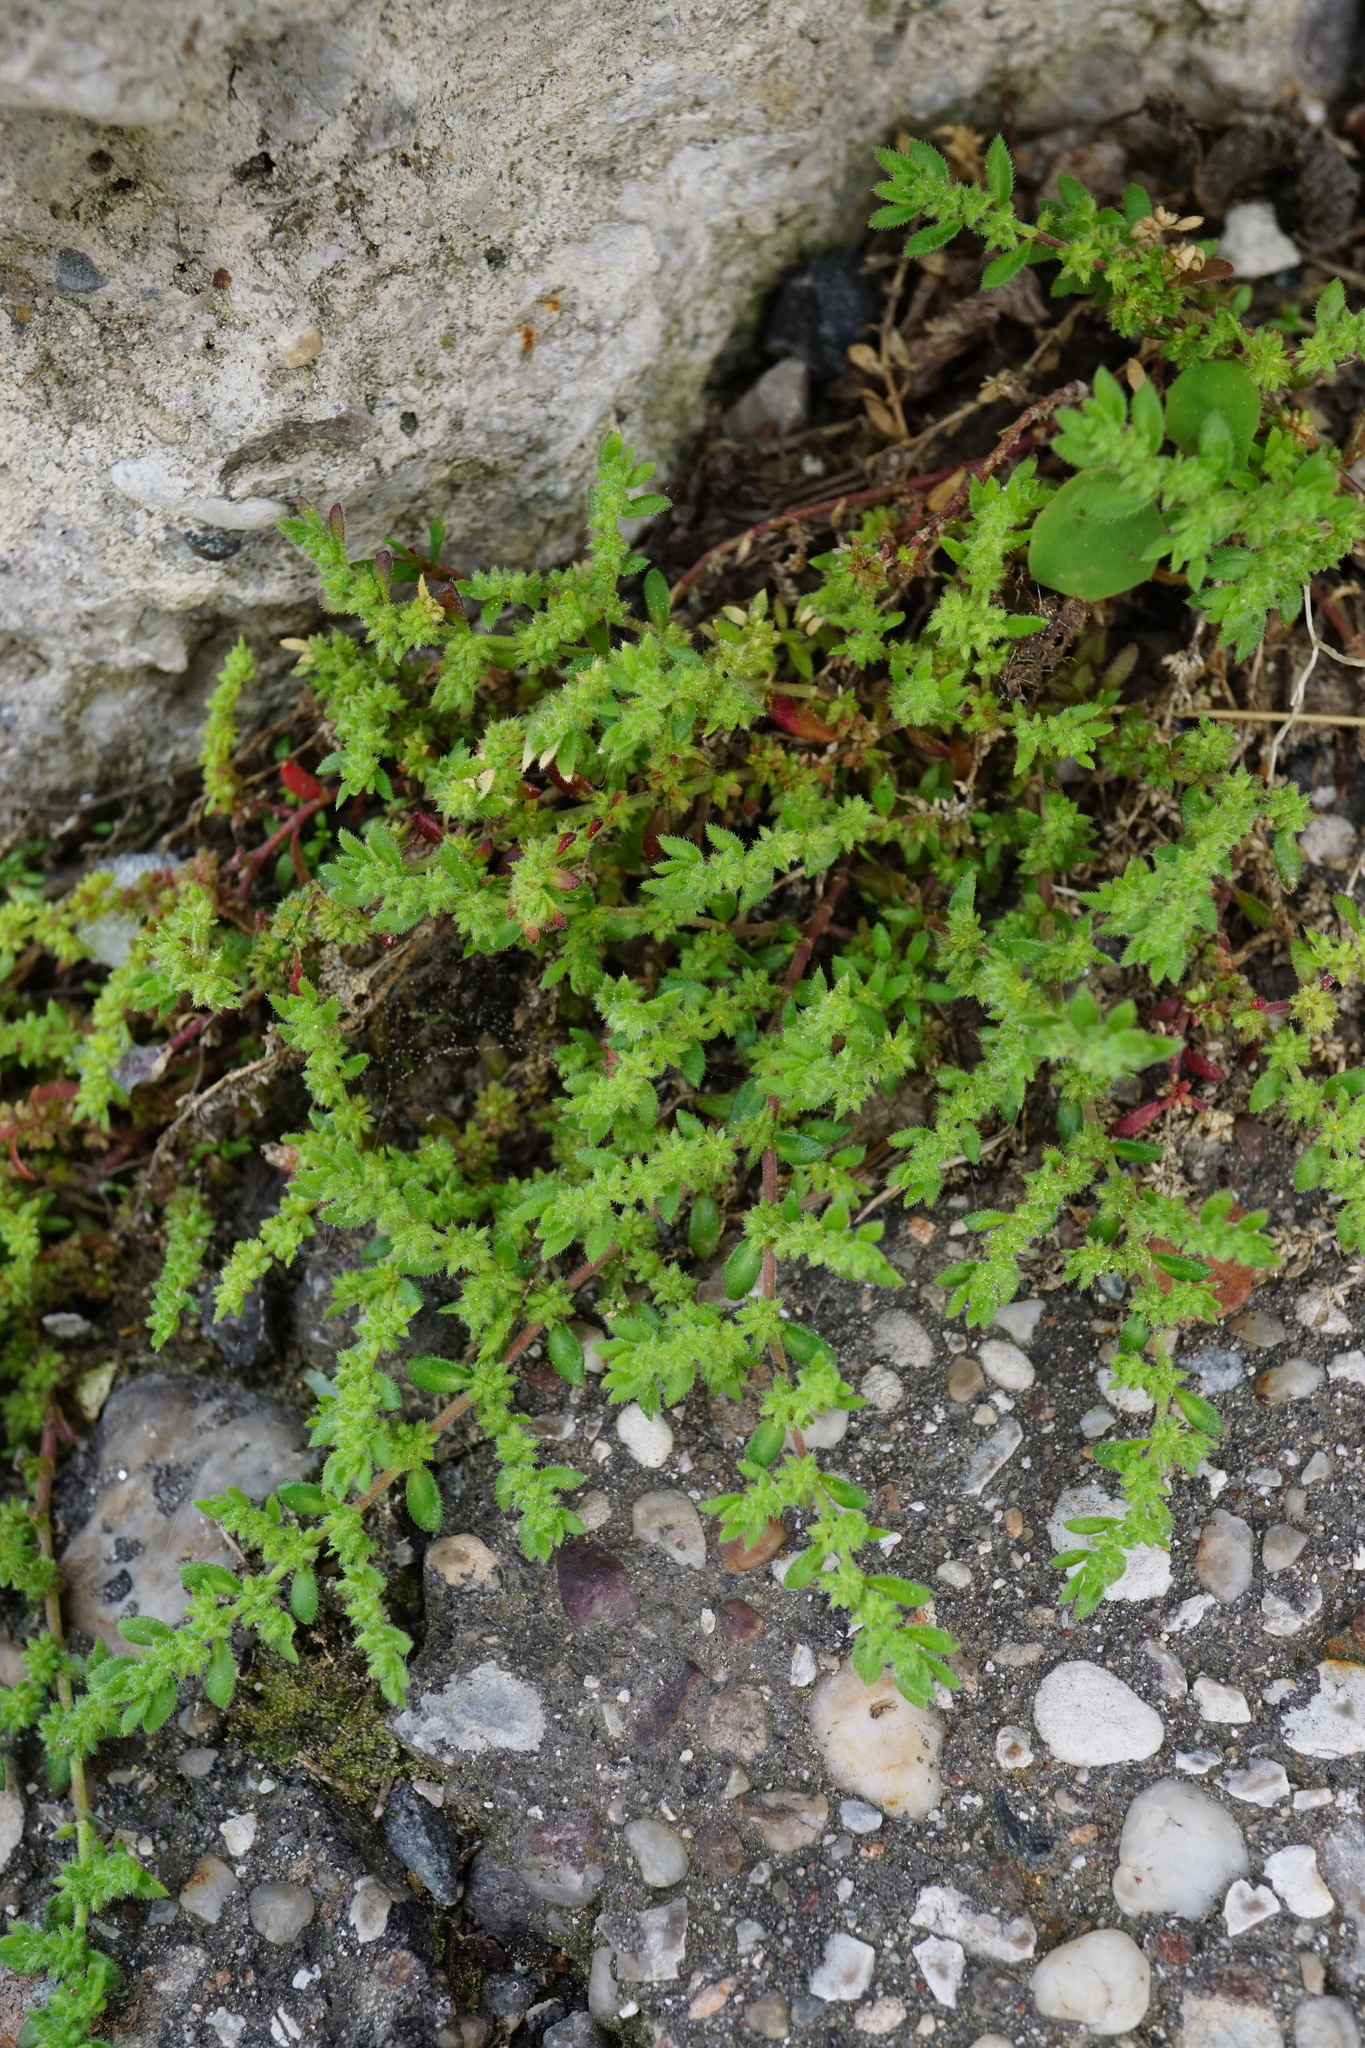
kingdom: Plantae
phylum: Tracheophyta
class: Magnoliopsida
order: Caryophyllales
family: Caryophyllaceae
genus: Herniaria
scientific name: Herniaria hirsuta
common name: Hairy rupturewort
